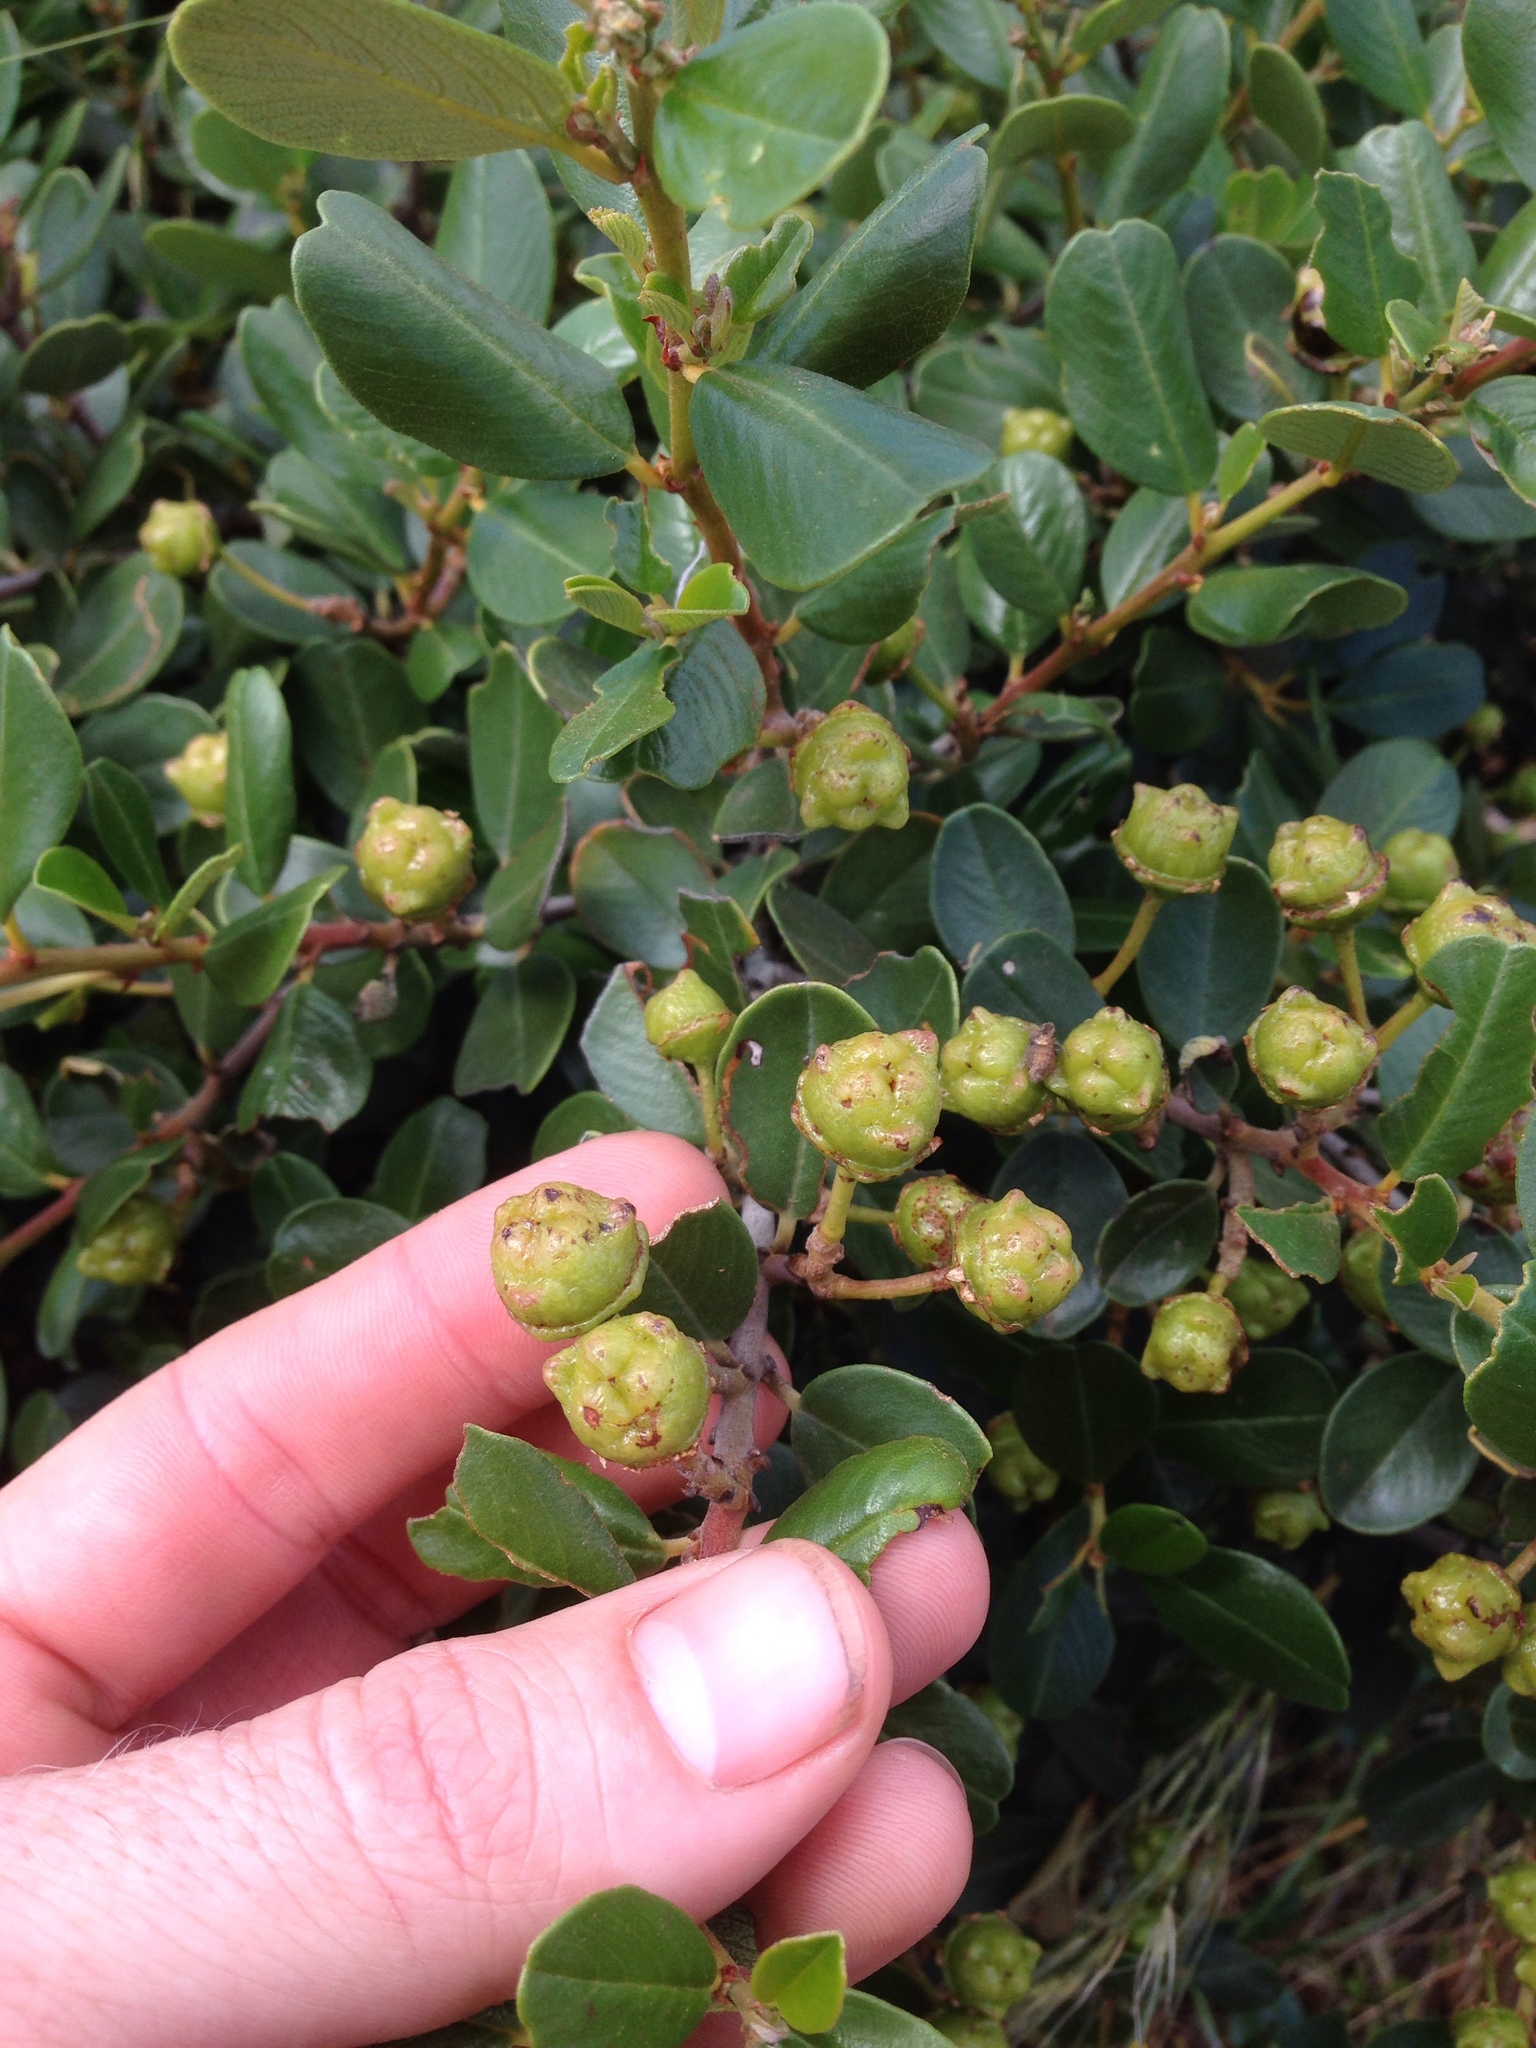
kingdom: Plantae
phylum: Tracheophyta
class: Magnoliopsida
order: Rosales
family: Rhamnaceae
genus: Ceanothus
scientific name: Ceanothus megacarpus
